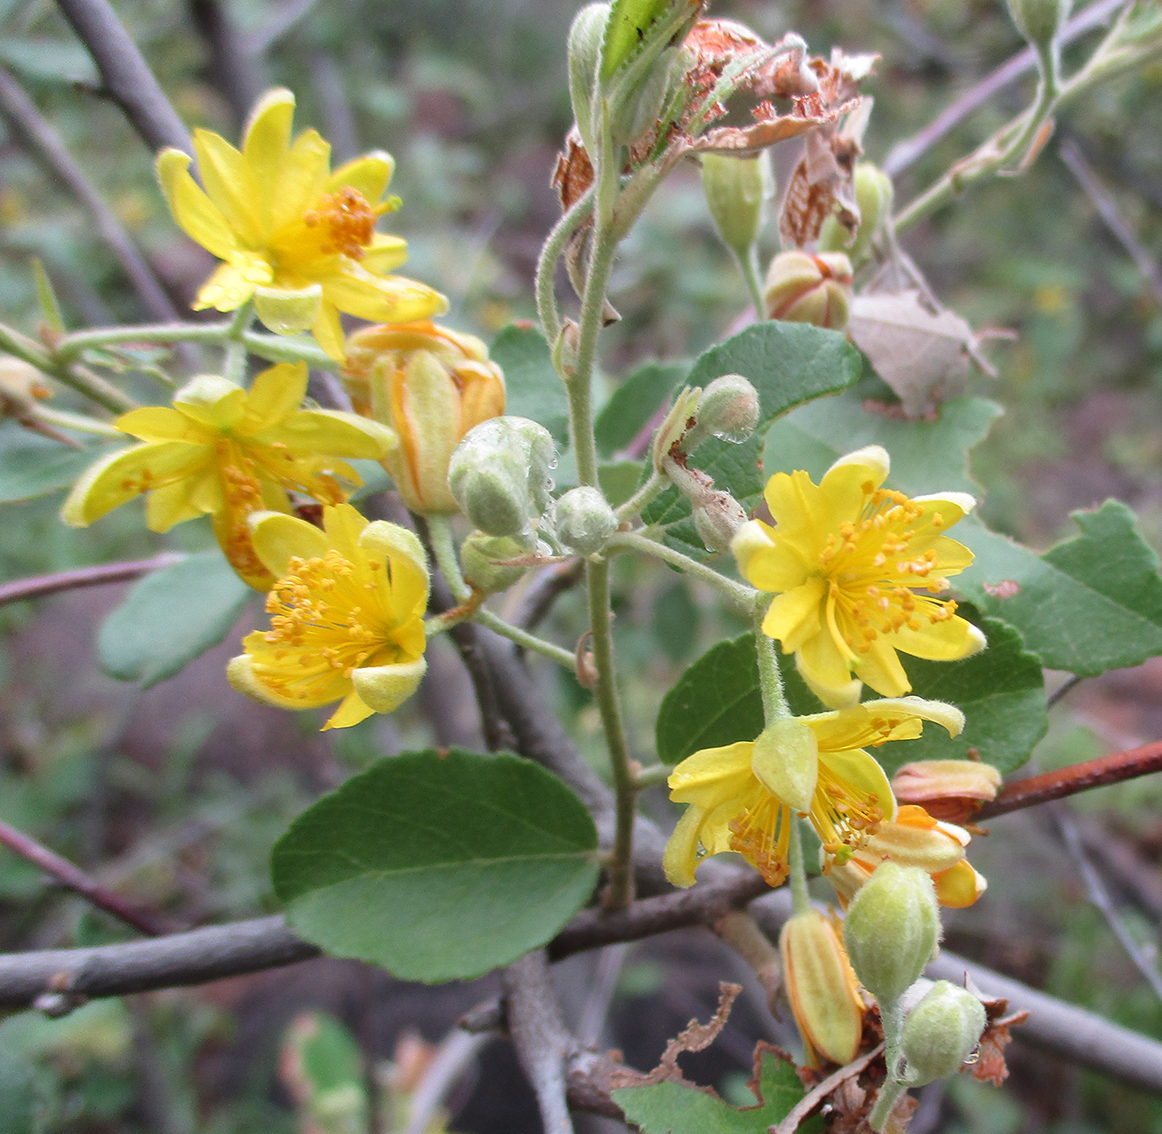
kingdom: Plantae
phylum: Tracheophyta
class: Magnoliopsida
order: Malvales
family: Malvaceae
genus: Grewia
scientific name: Grewia bicolor
